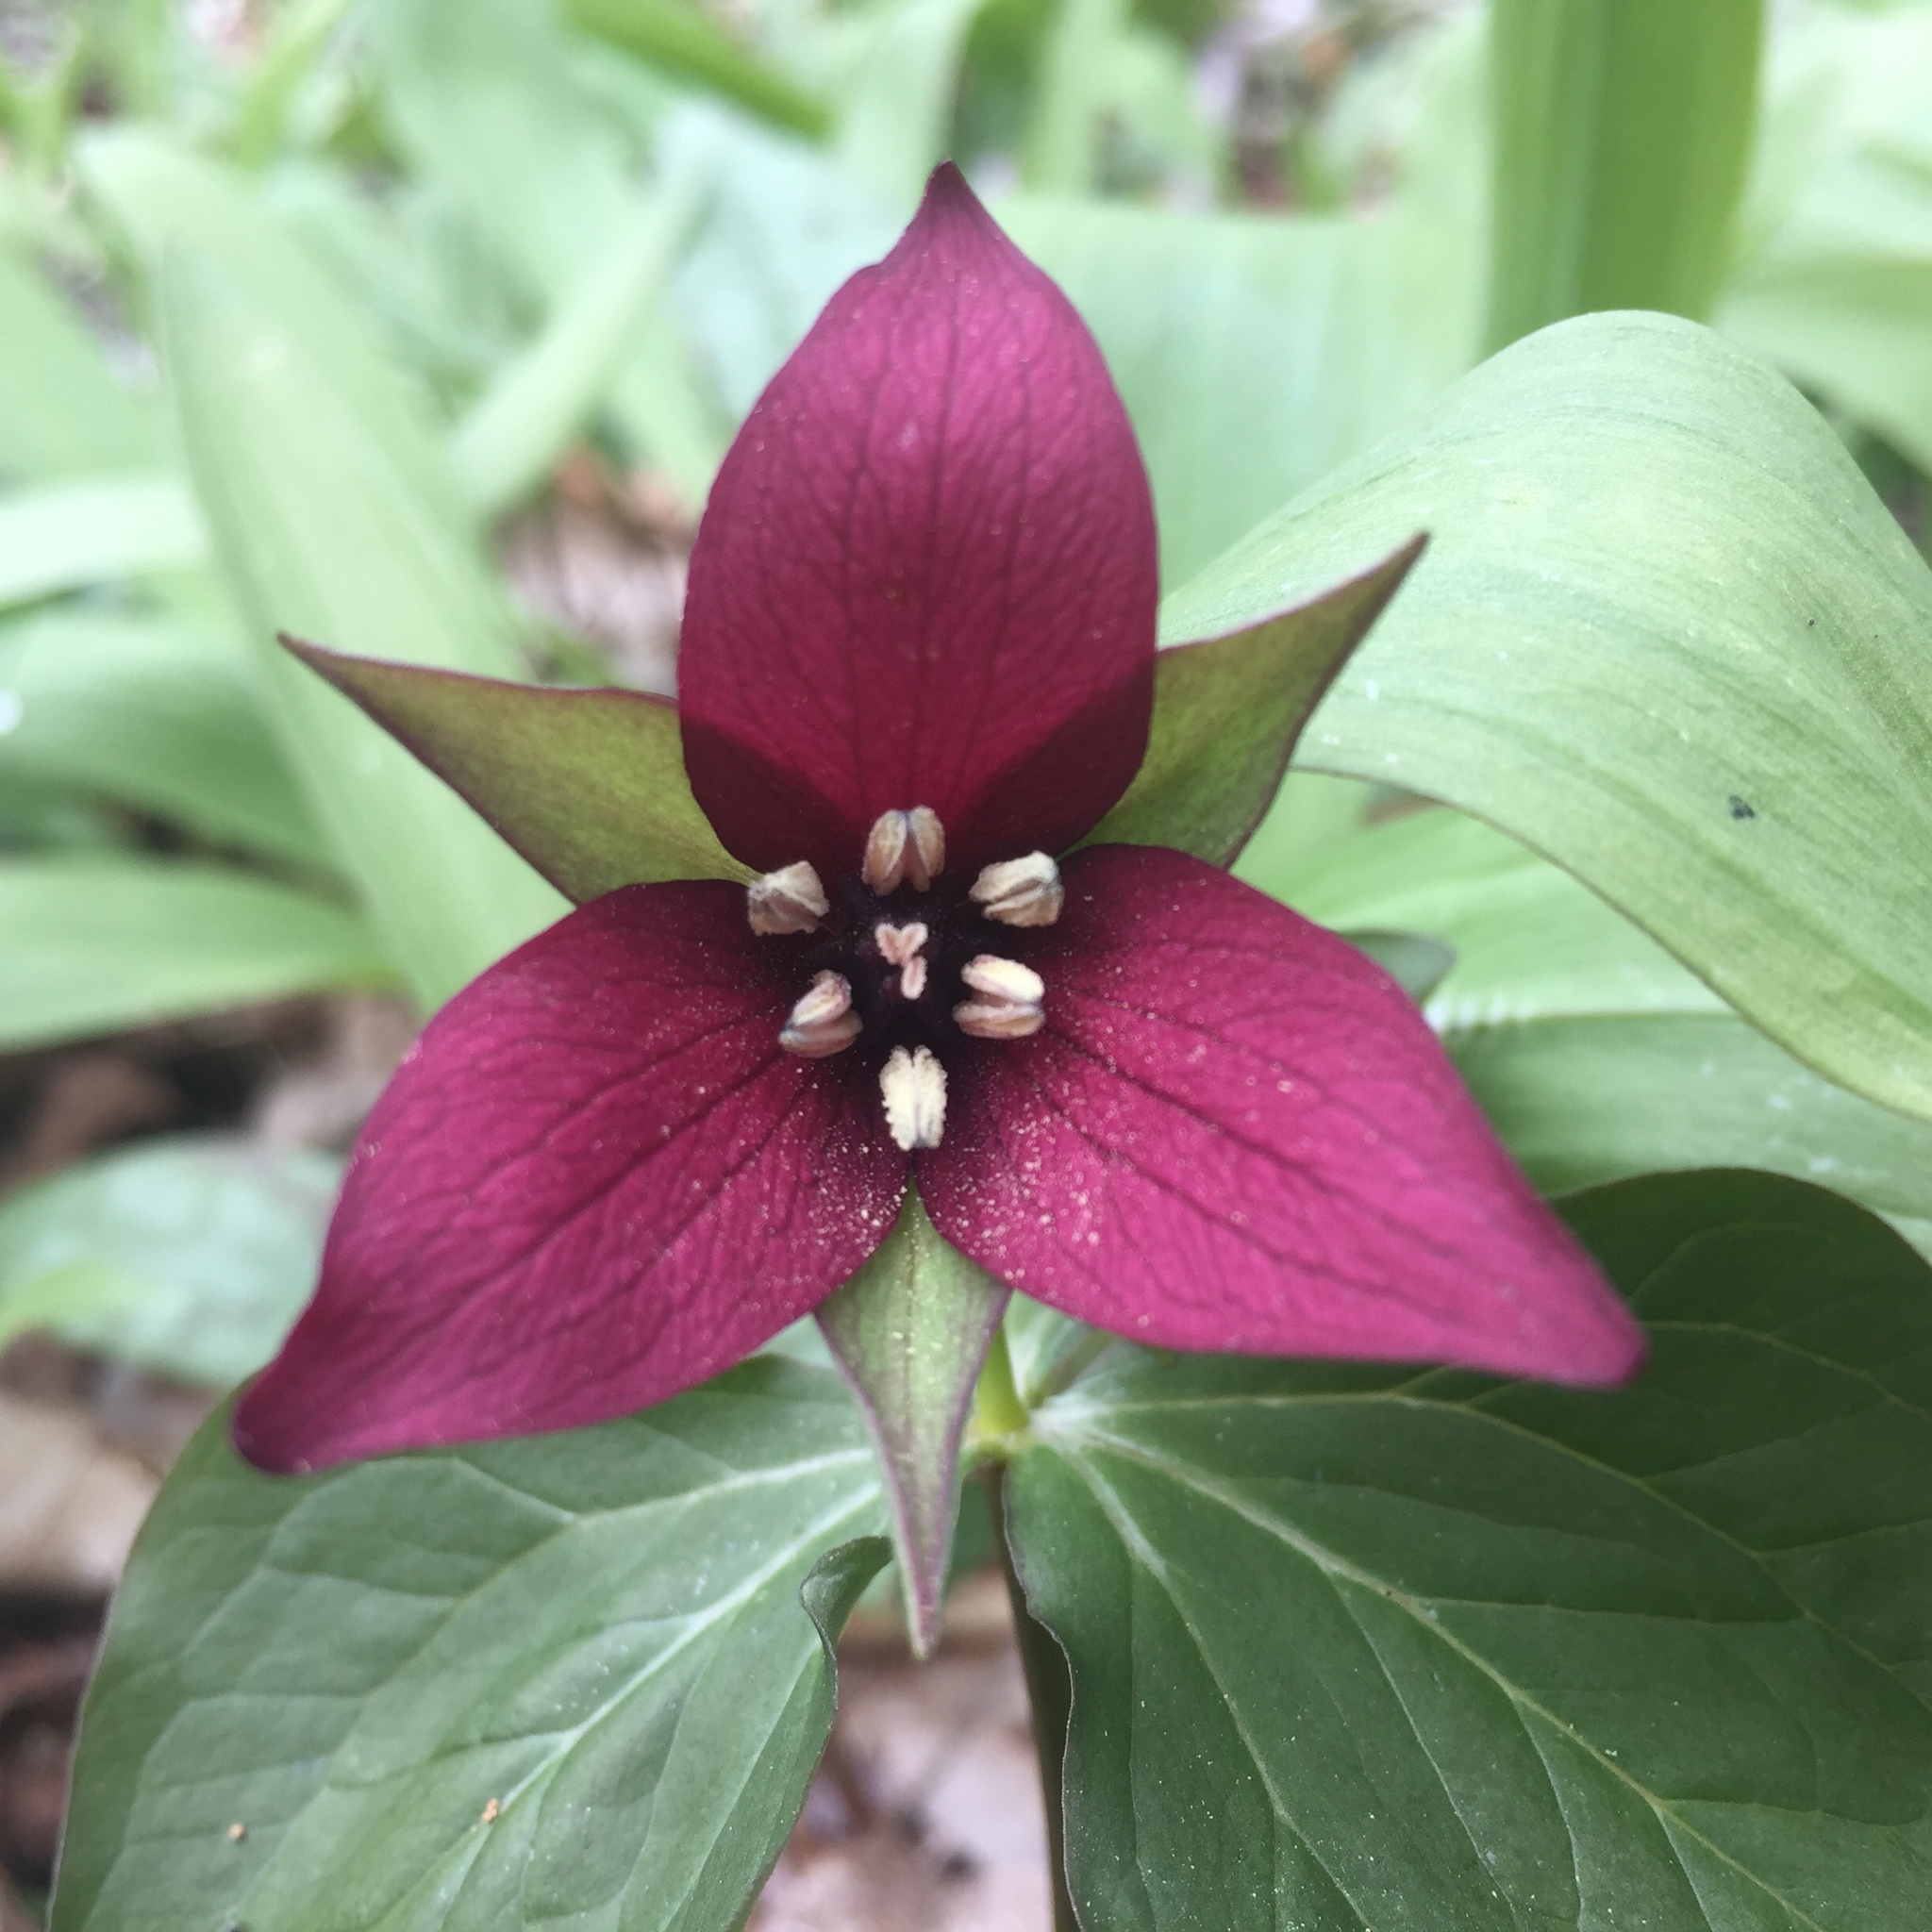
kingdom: Plantae
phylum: Tracheophyta
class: Liliopsida
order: Liliales
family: Melanthiaceae
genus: Trillium
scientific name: Trillium erectum
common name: Purple trillium
